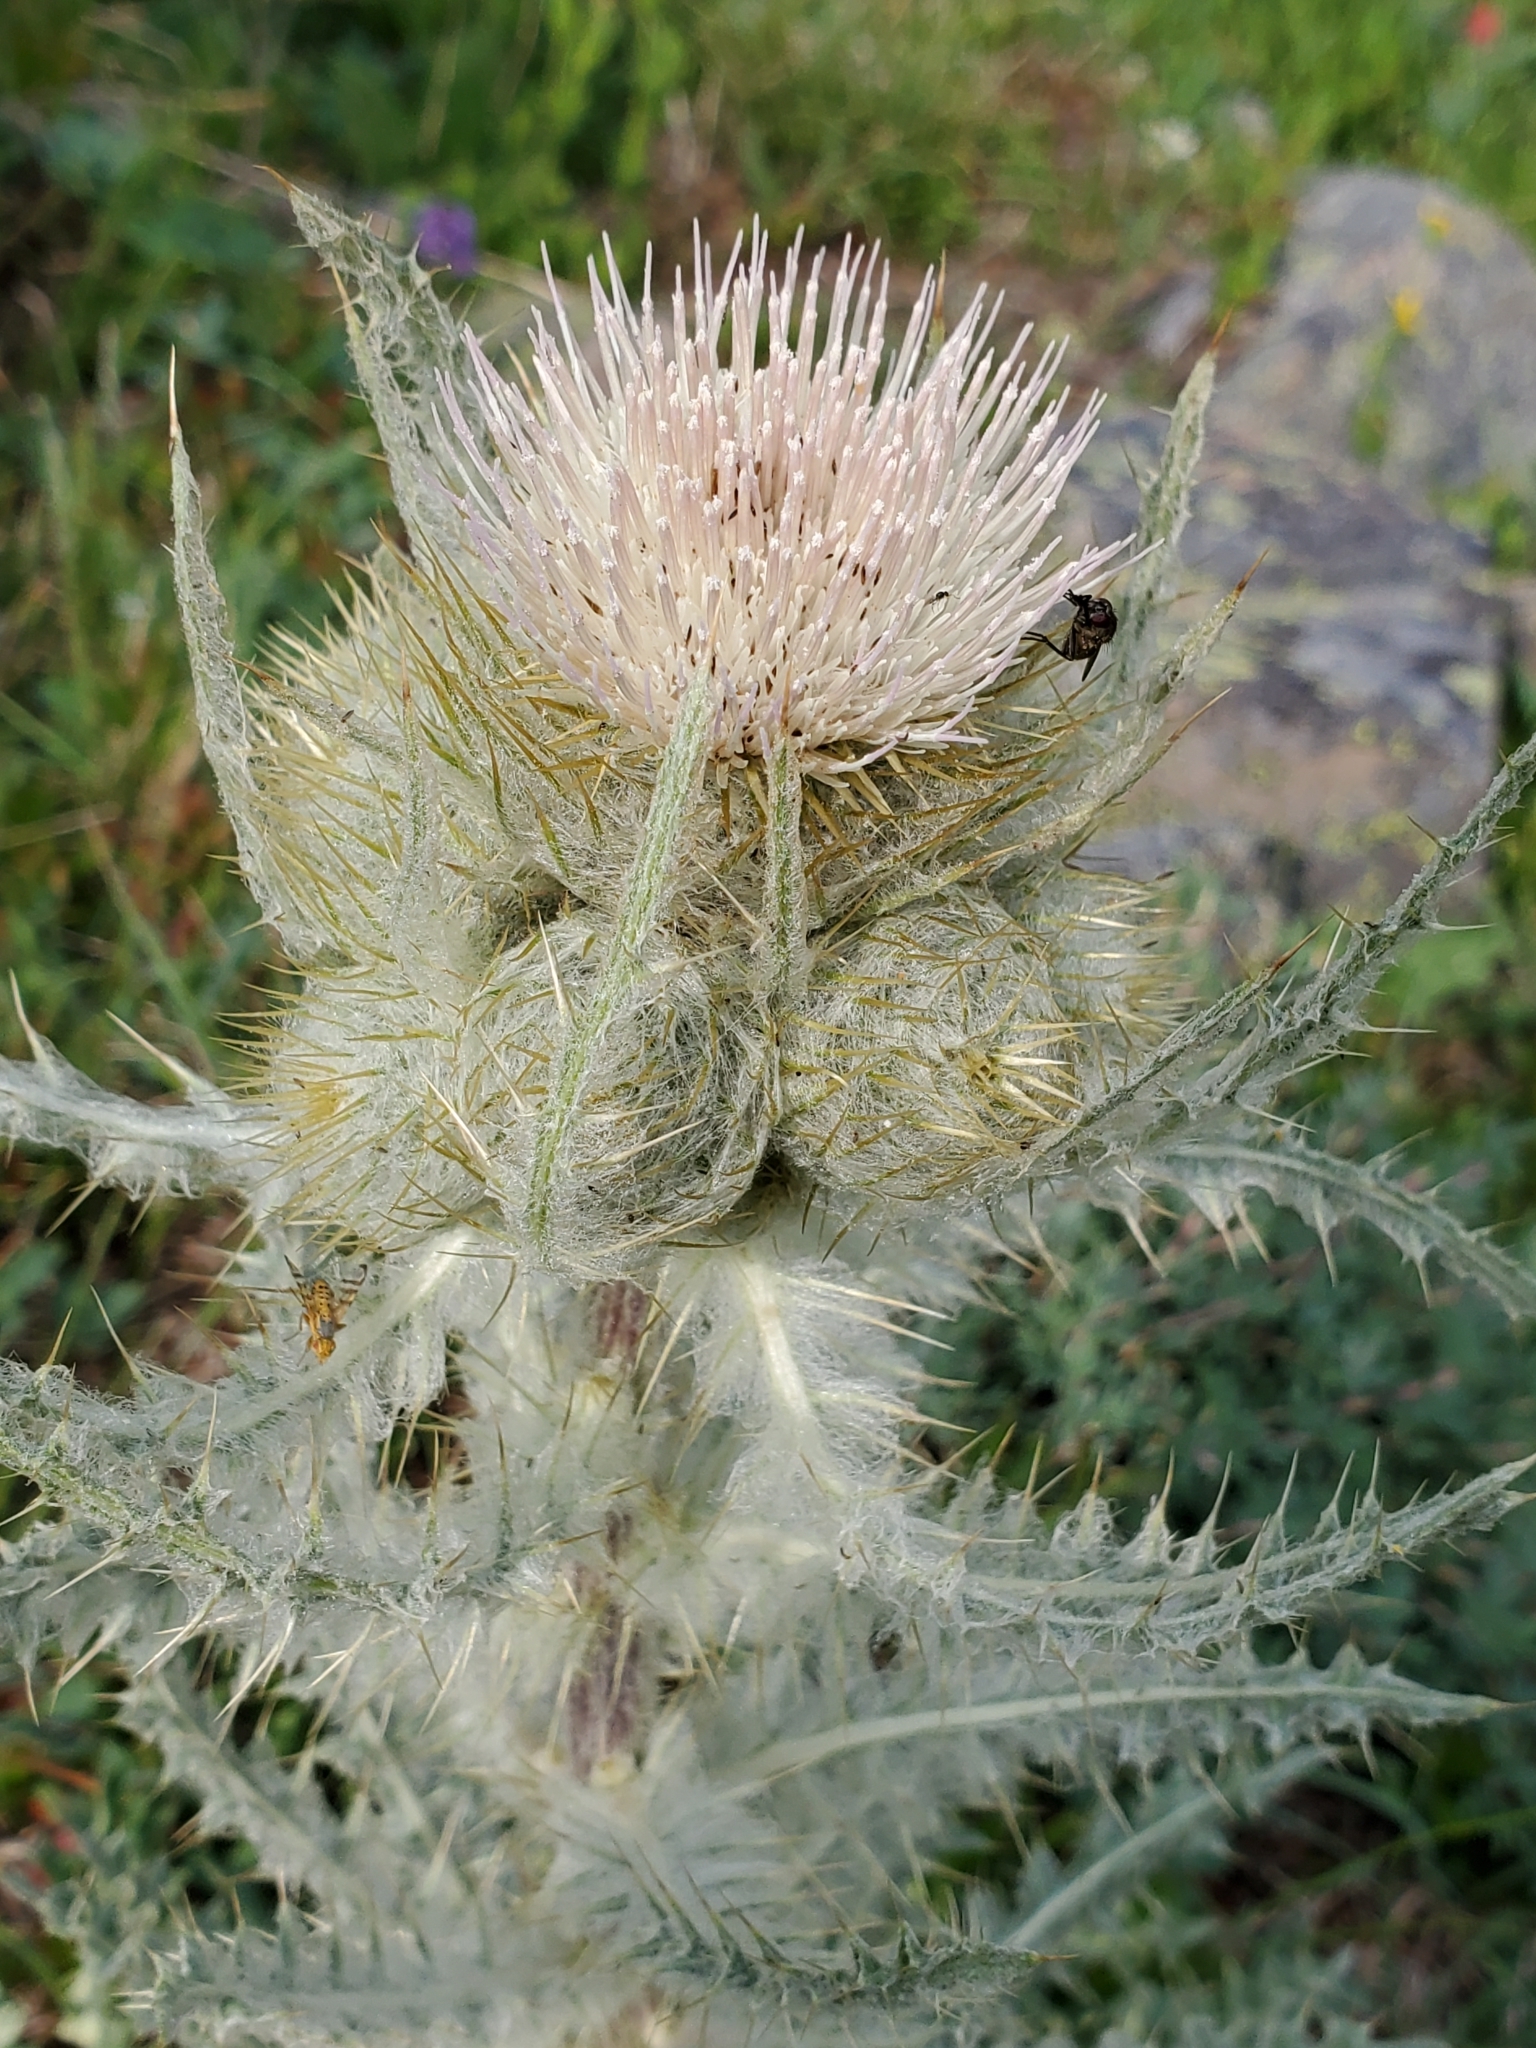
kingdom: Plantae
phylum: Tracheophyta
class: Magnoliopsida
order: Asterales
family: Asteraceae
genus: Cirsium
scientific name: Cirsium hookerianum
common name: Hooker's thistle
